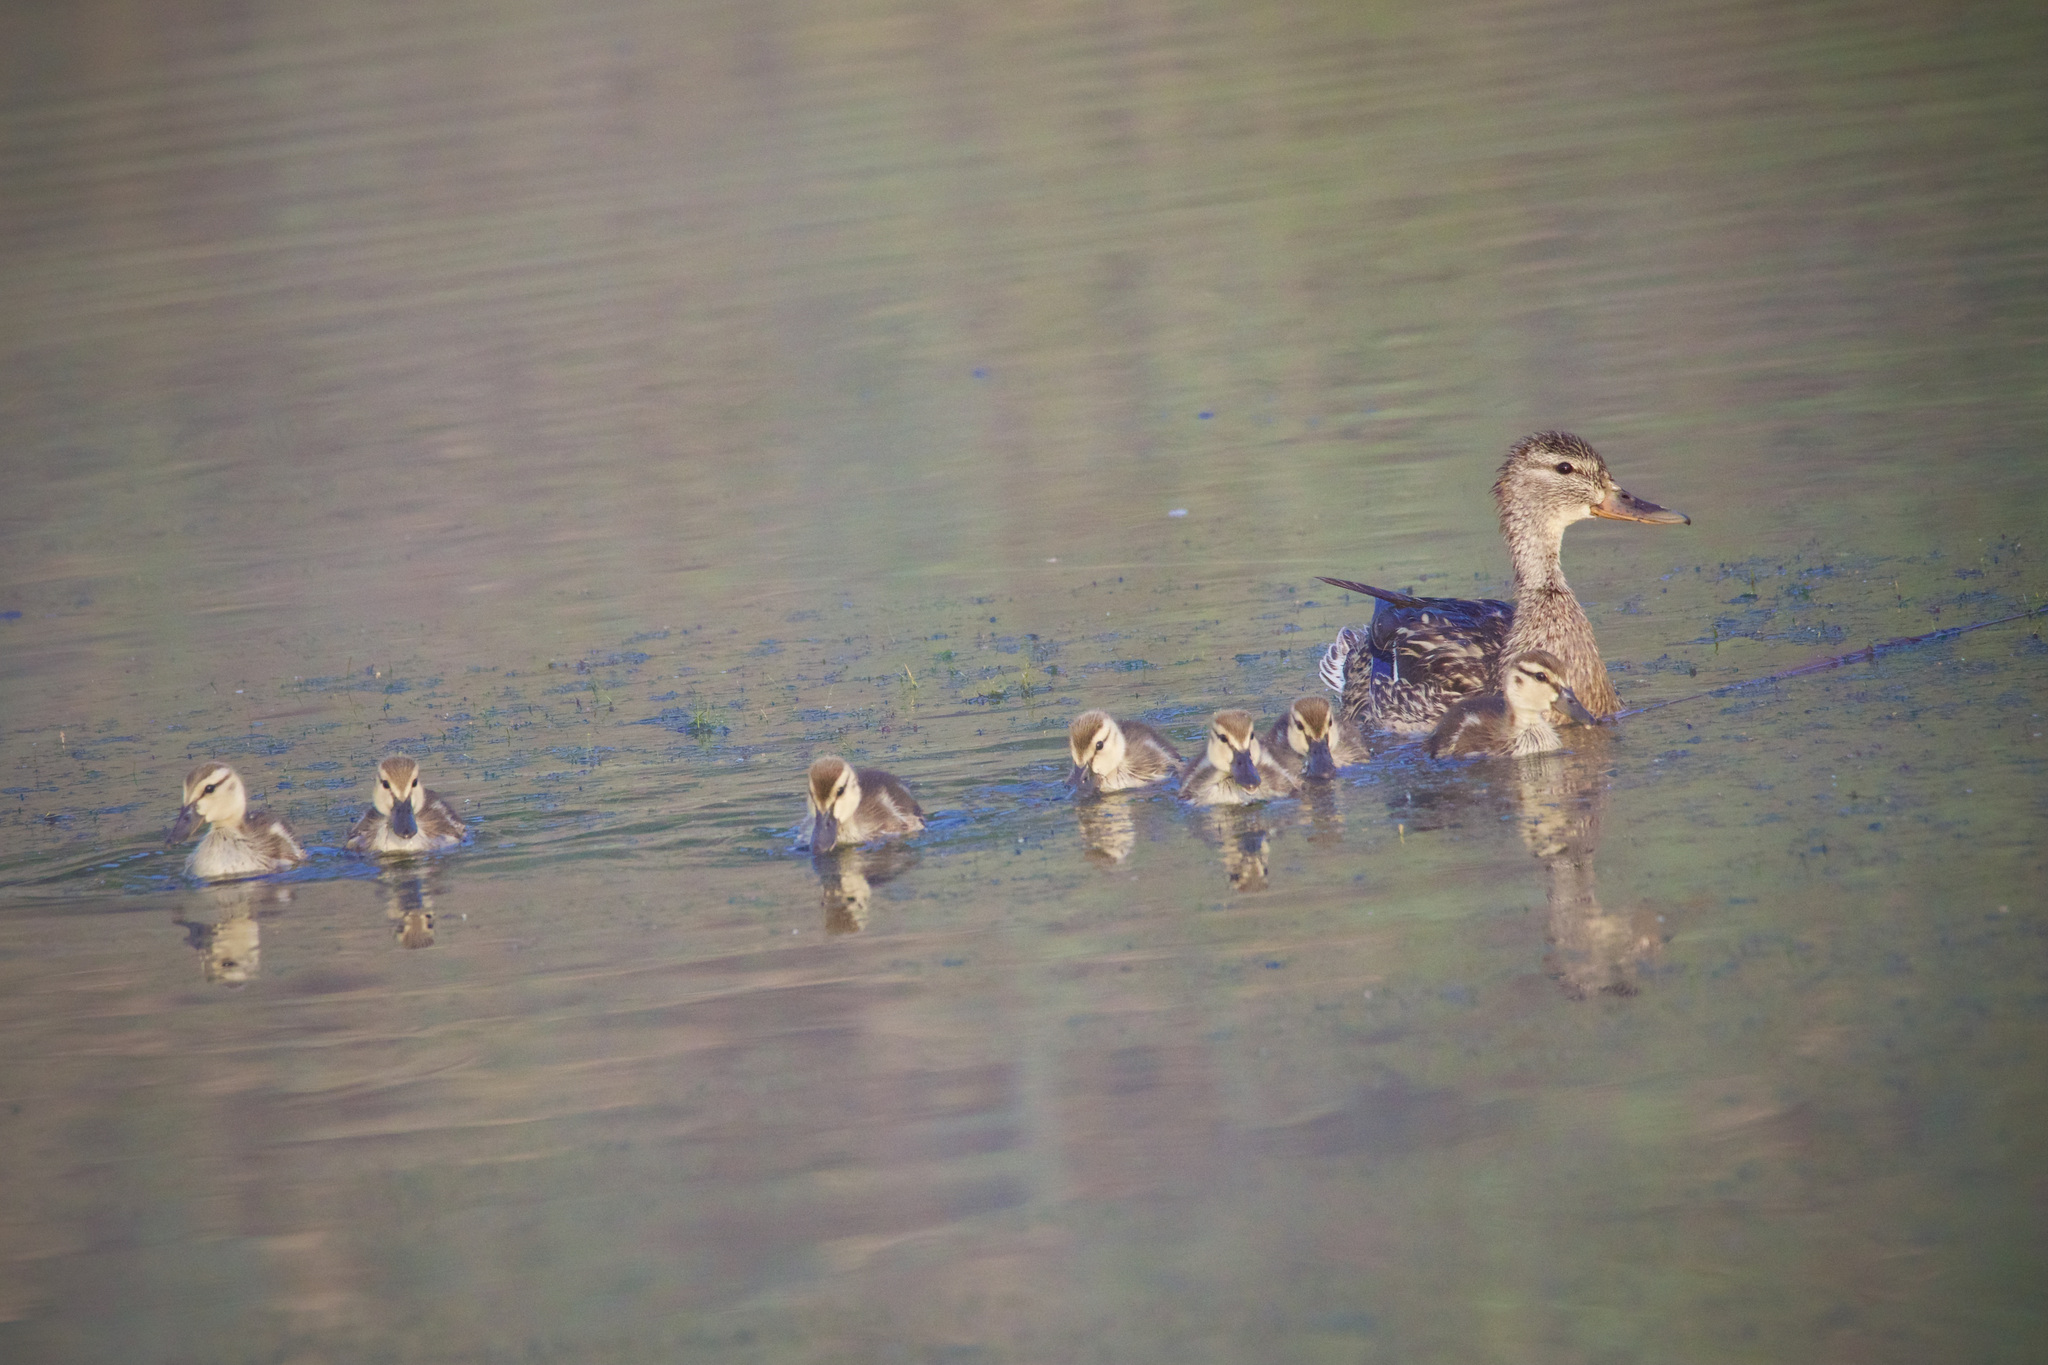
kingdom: Animalia
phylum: Chordata
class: Aves
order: Anseriformes
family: Anatidae
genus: Anas
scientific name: Anas platyrhynchos
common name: Mallard
